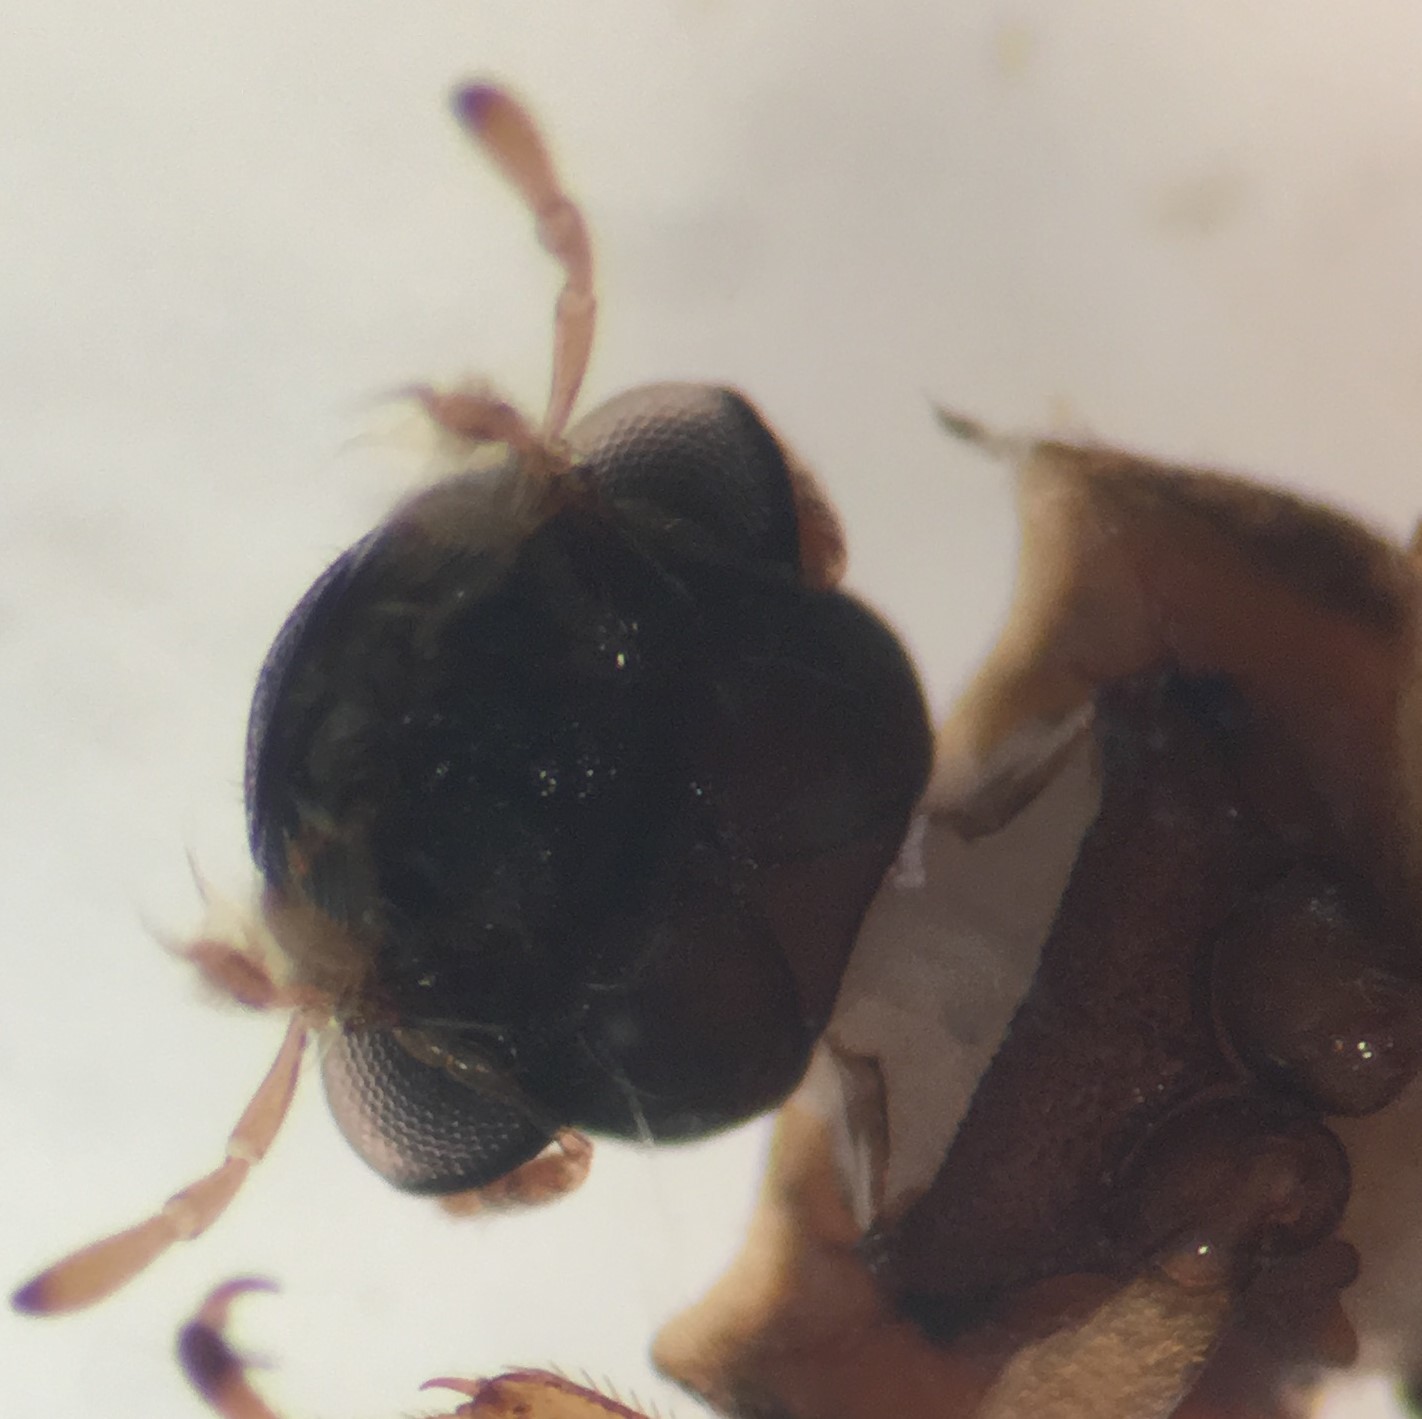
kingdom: Animalia
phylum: Arthropoda
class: Insecta
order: Coleoptera
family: Helophoridae
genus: Helophorus
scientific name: Helophorus linearis
